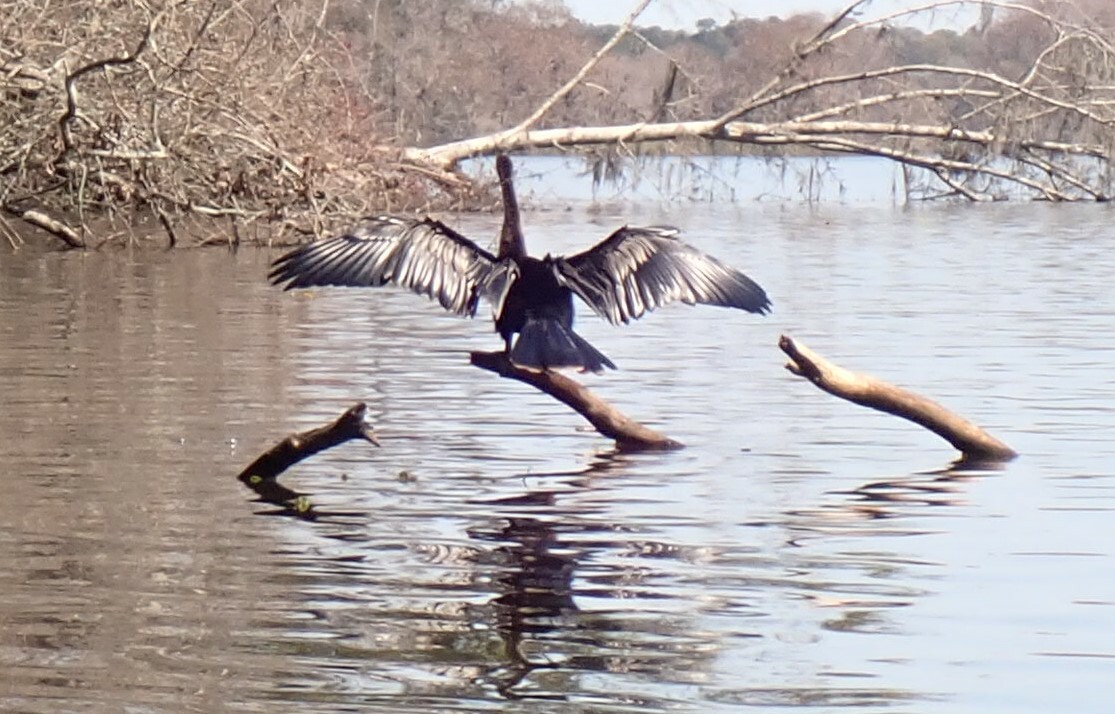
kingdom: Animalia
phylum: Chordata
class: Aves
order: Suliformes
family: Anhingidae
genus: Anhinga
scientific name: Anhinga anhinga
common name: Anhinga
